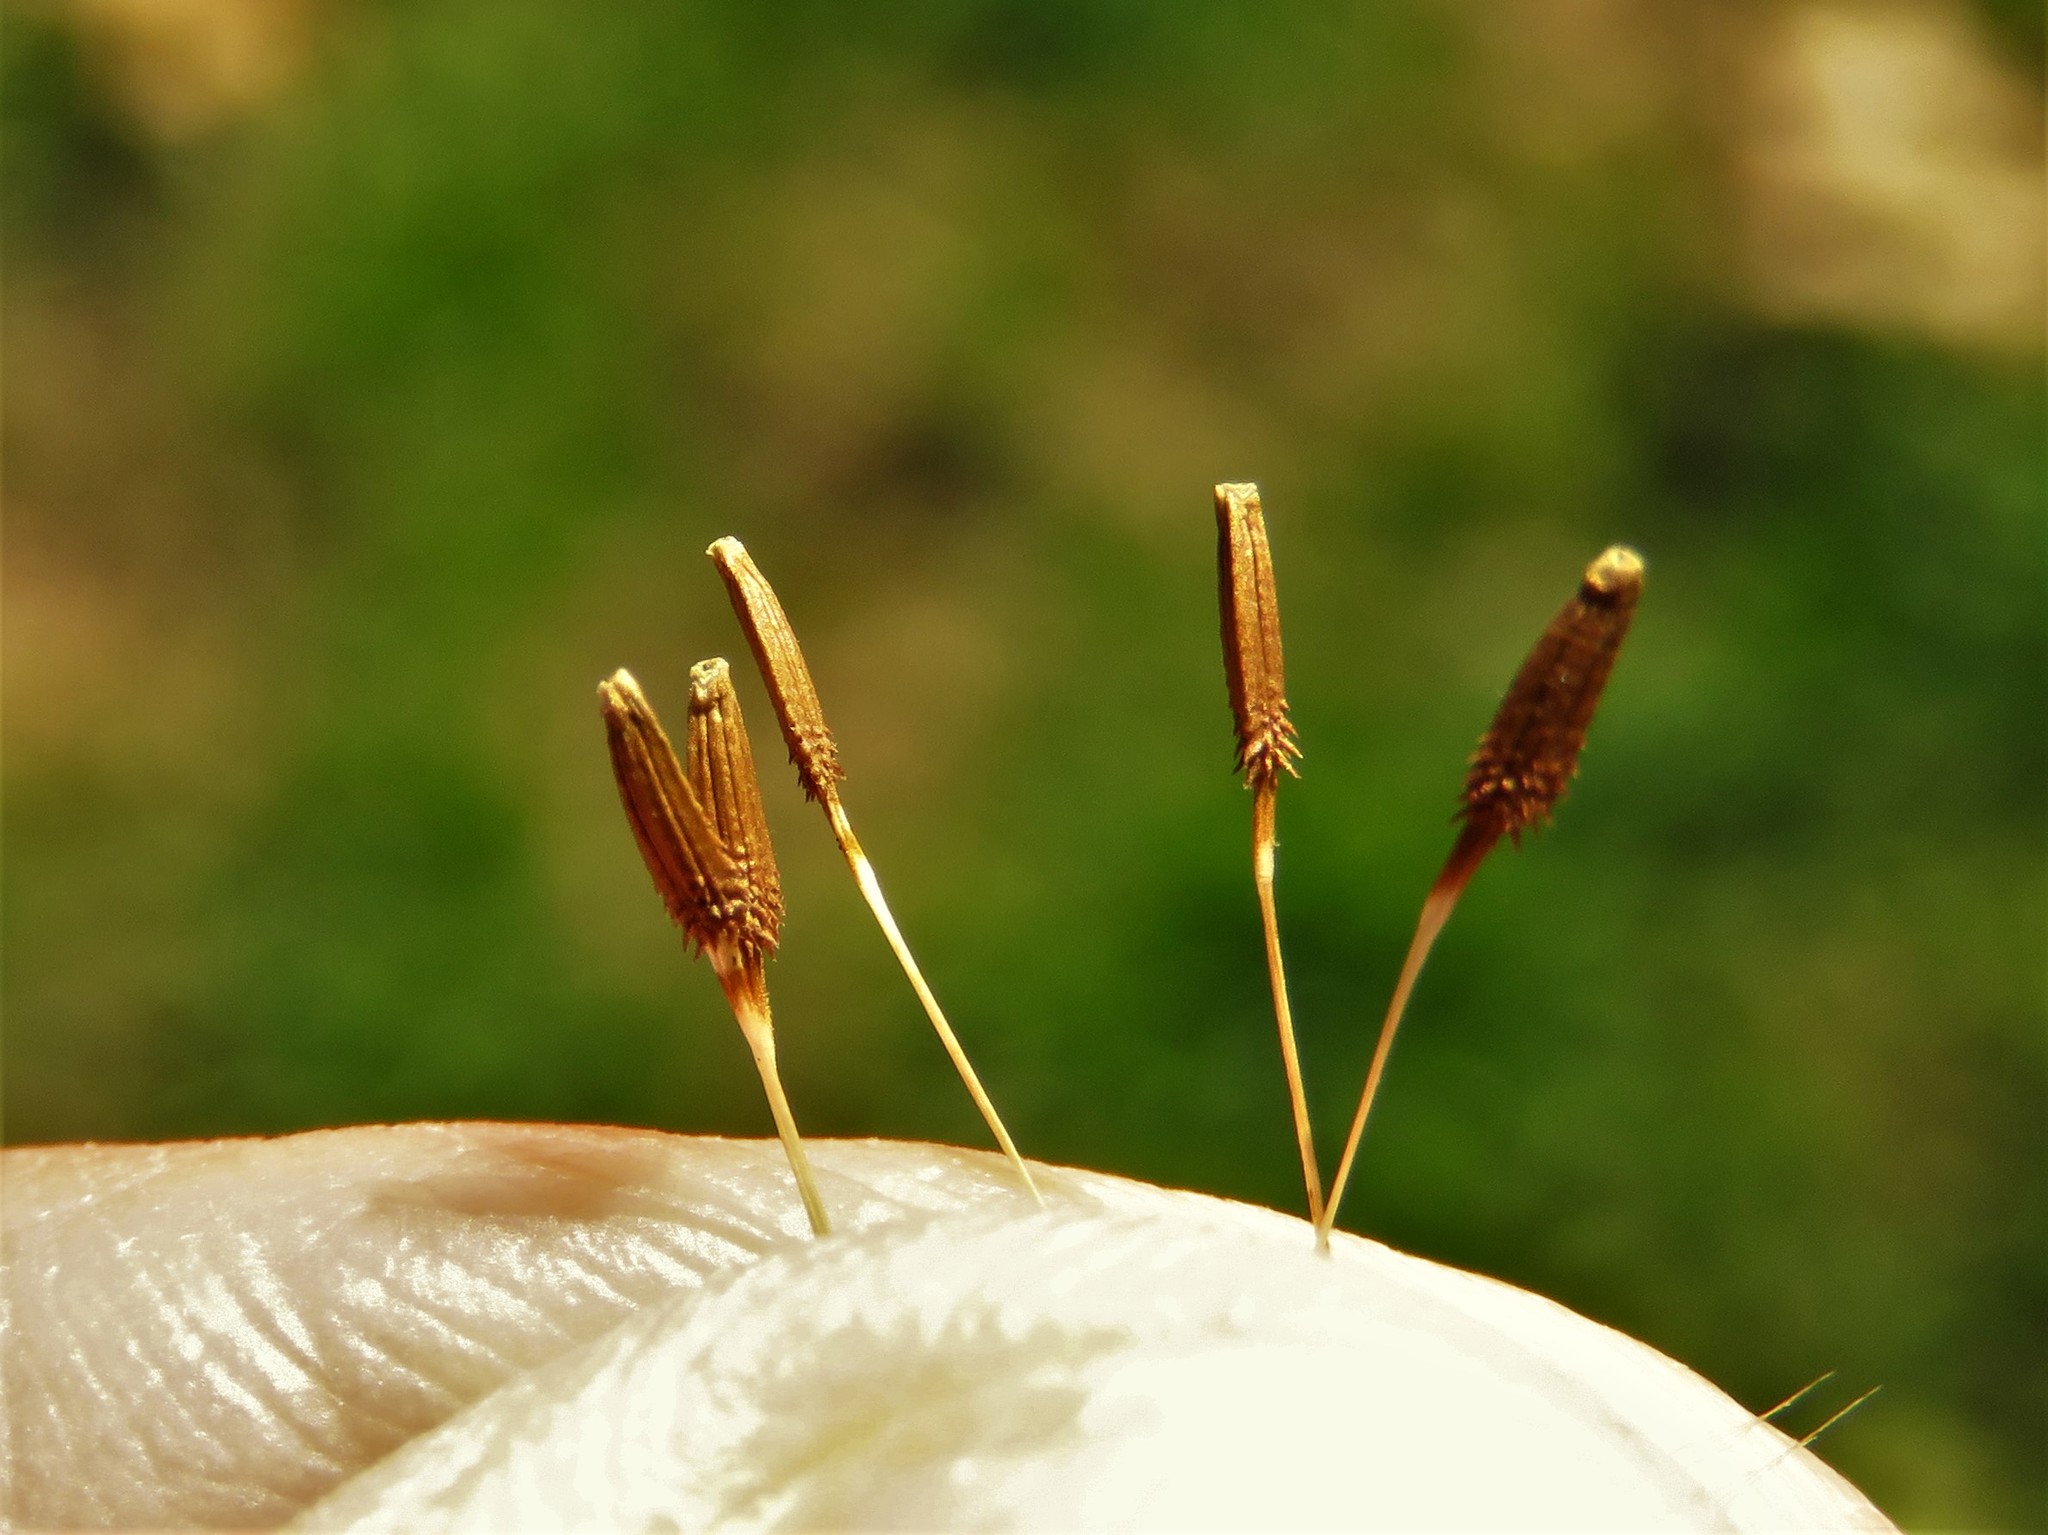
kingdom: Plantae
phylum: Tracheophyta
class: Magnoliopsida
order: Asterales
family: Asteraceae
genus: Taraxacum
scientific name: Taraxacum officinale
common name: Common dandelion
